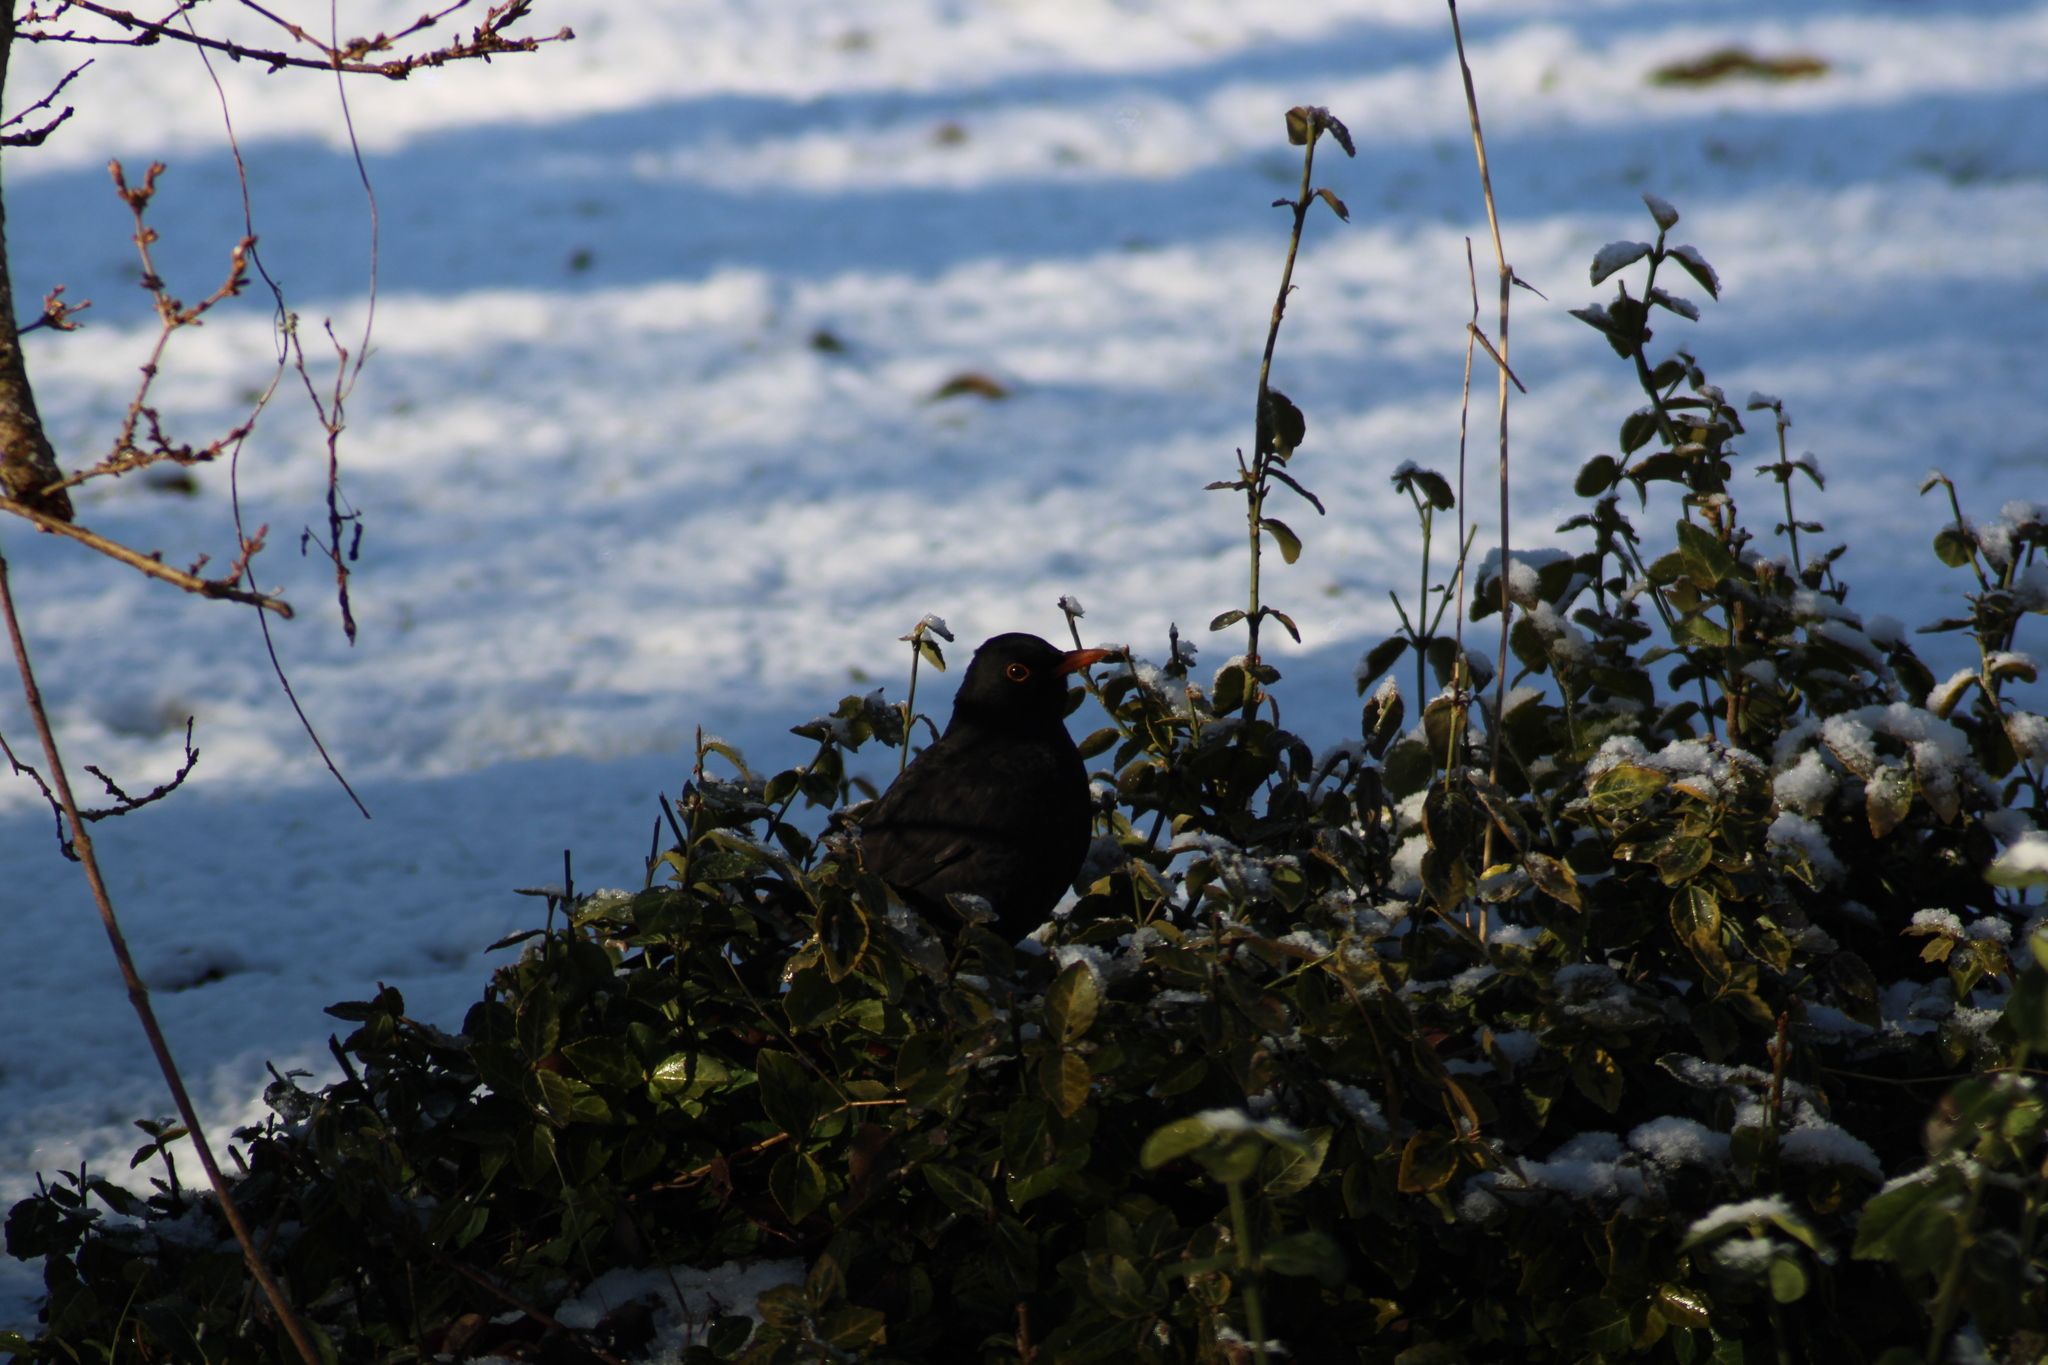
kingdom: Animalia
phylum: Chordata
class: Aves
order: Passeriformes
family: Turdidae
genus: Turdus
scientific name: Turdus merula
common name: Common blackbird
